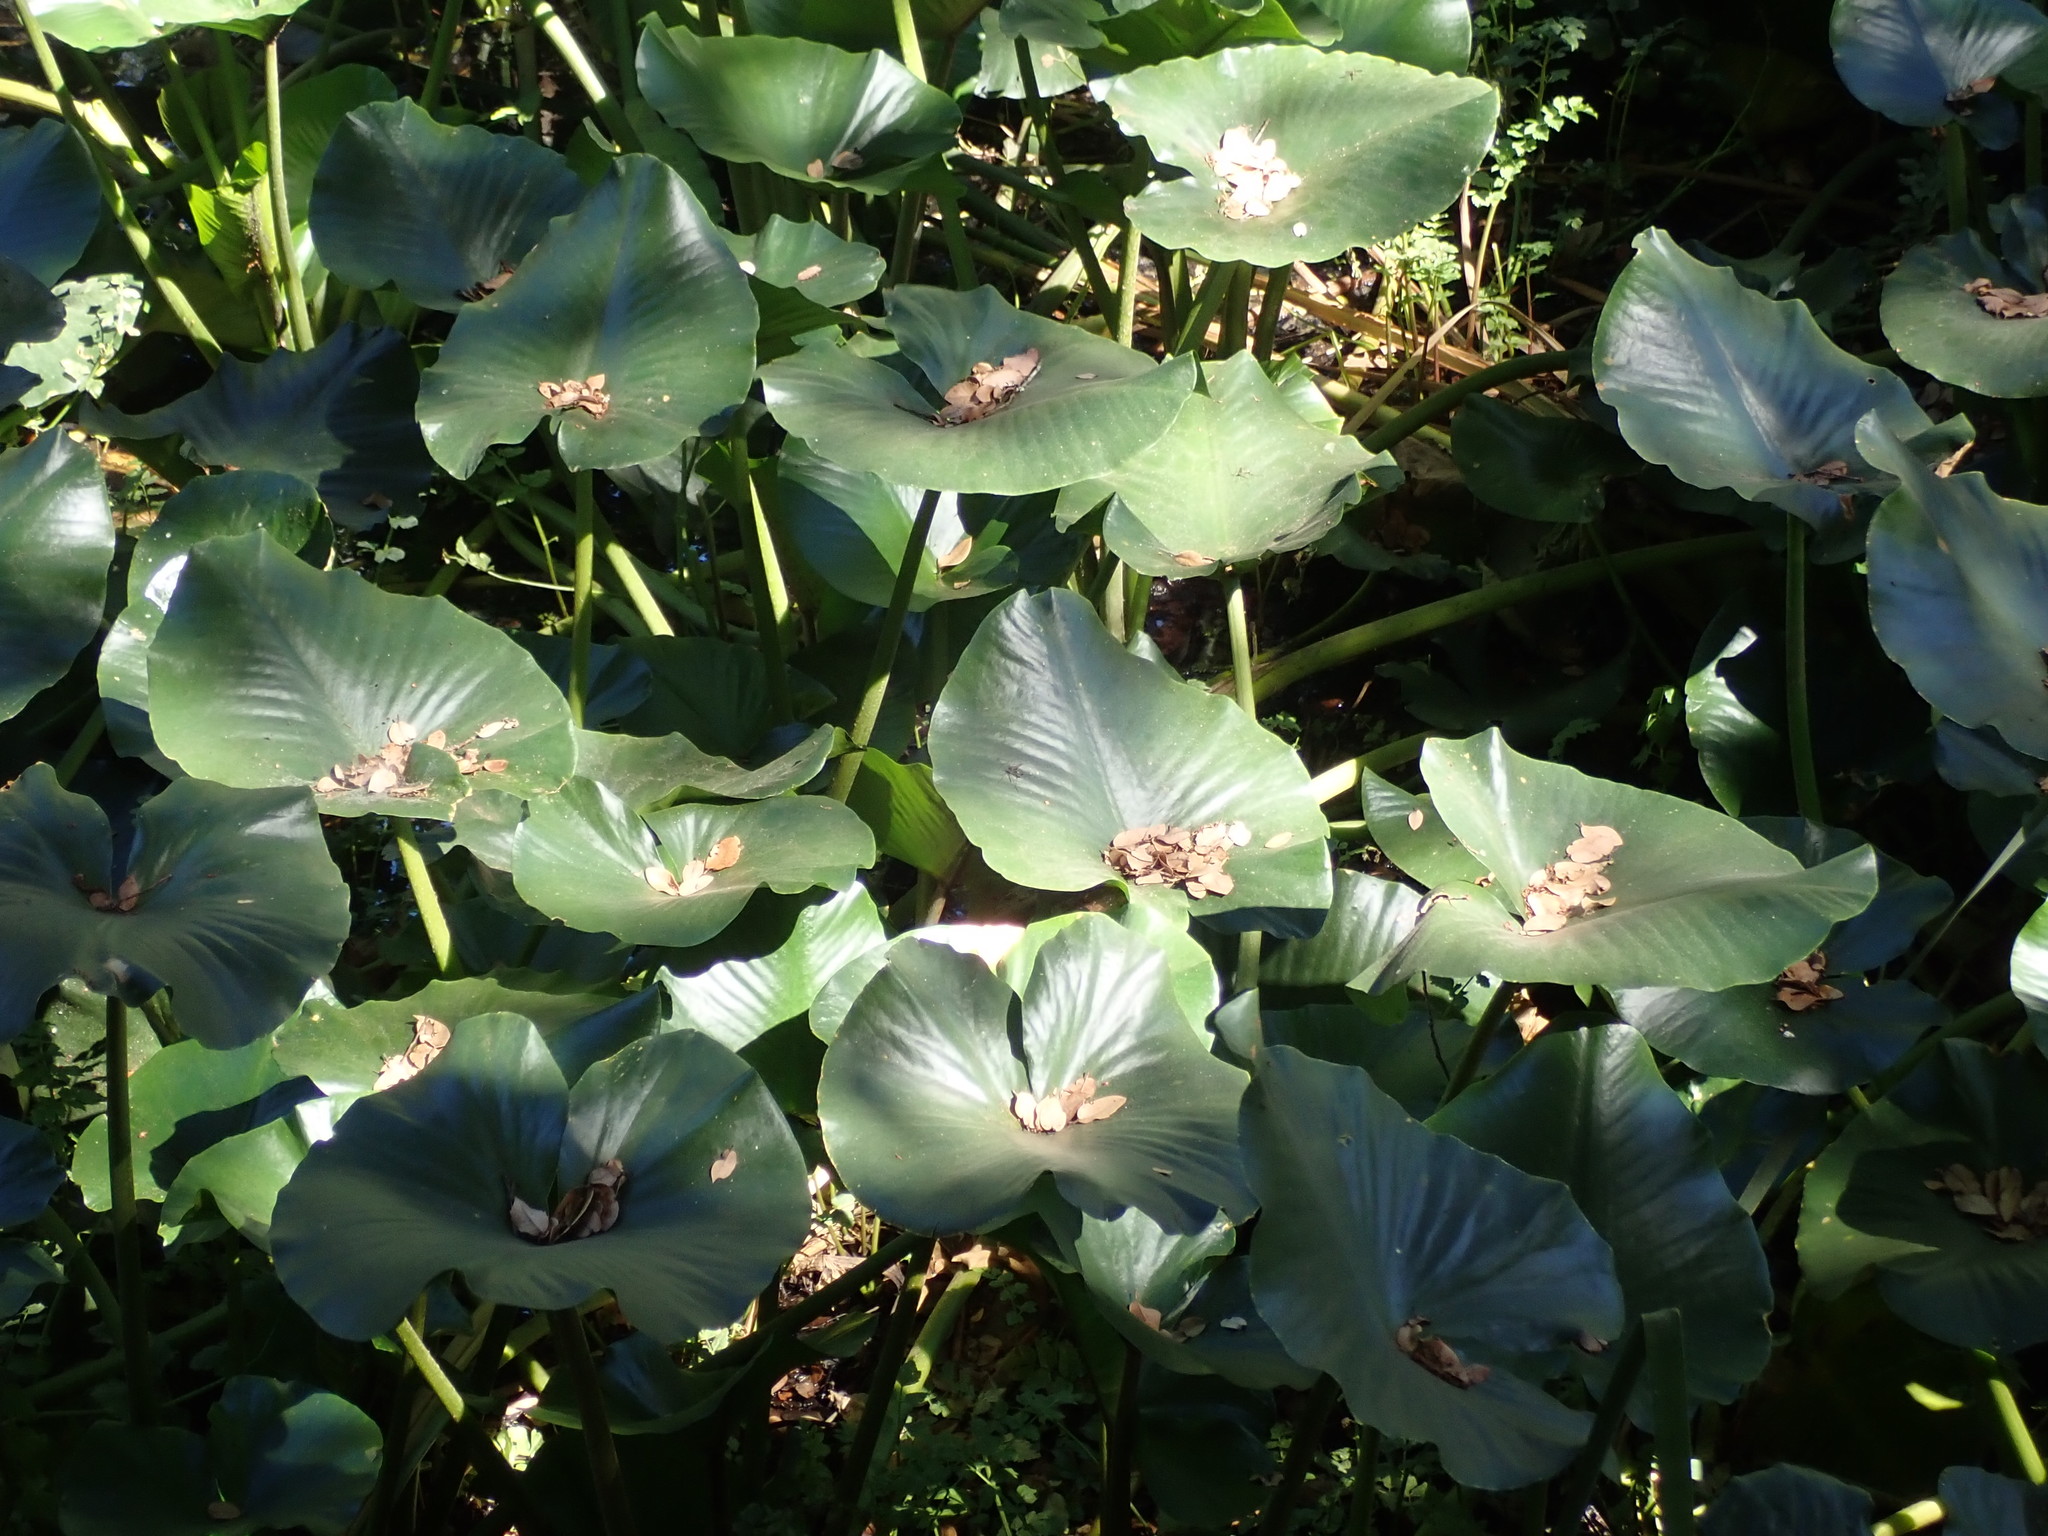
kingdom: Plantae
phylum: Tracheophyta
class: Magnoliopsida
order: Nymphaeales
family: Nymphaeaceae
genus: Nuphar
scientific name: Nuphar polysepala
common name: Rocky mountain cow-lily
